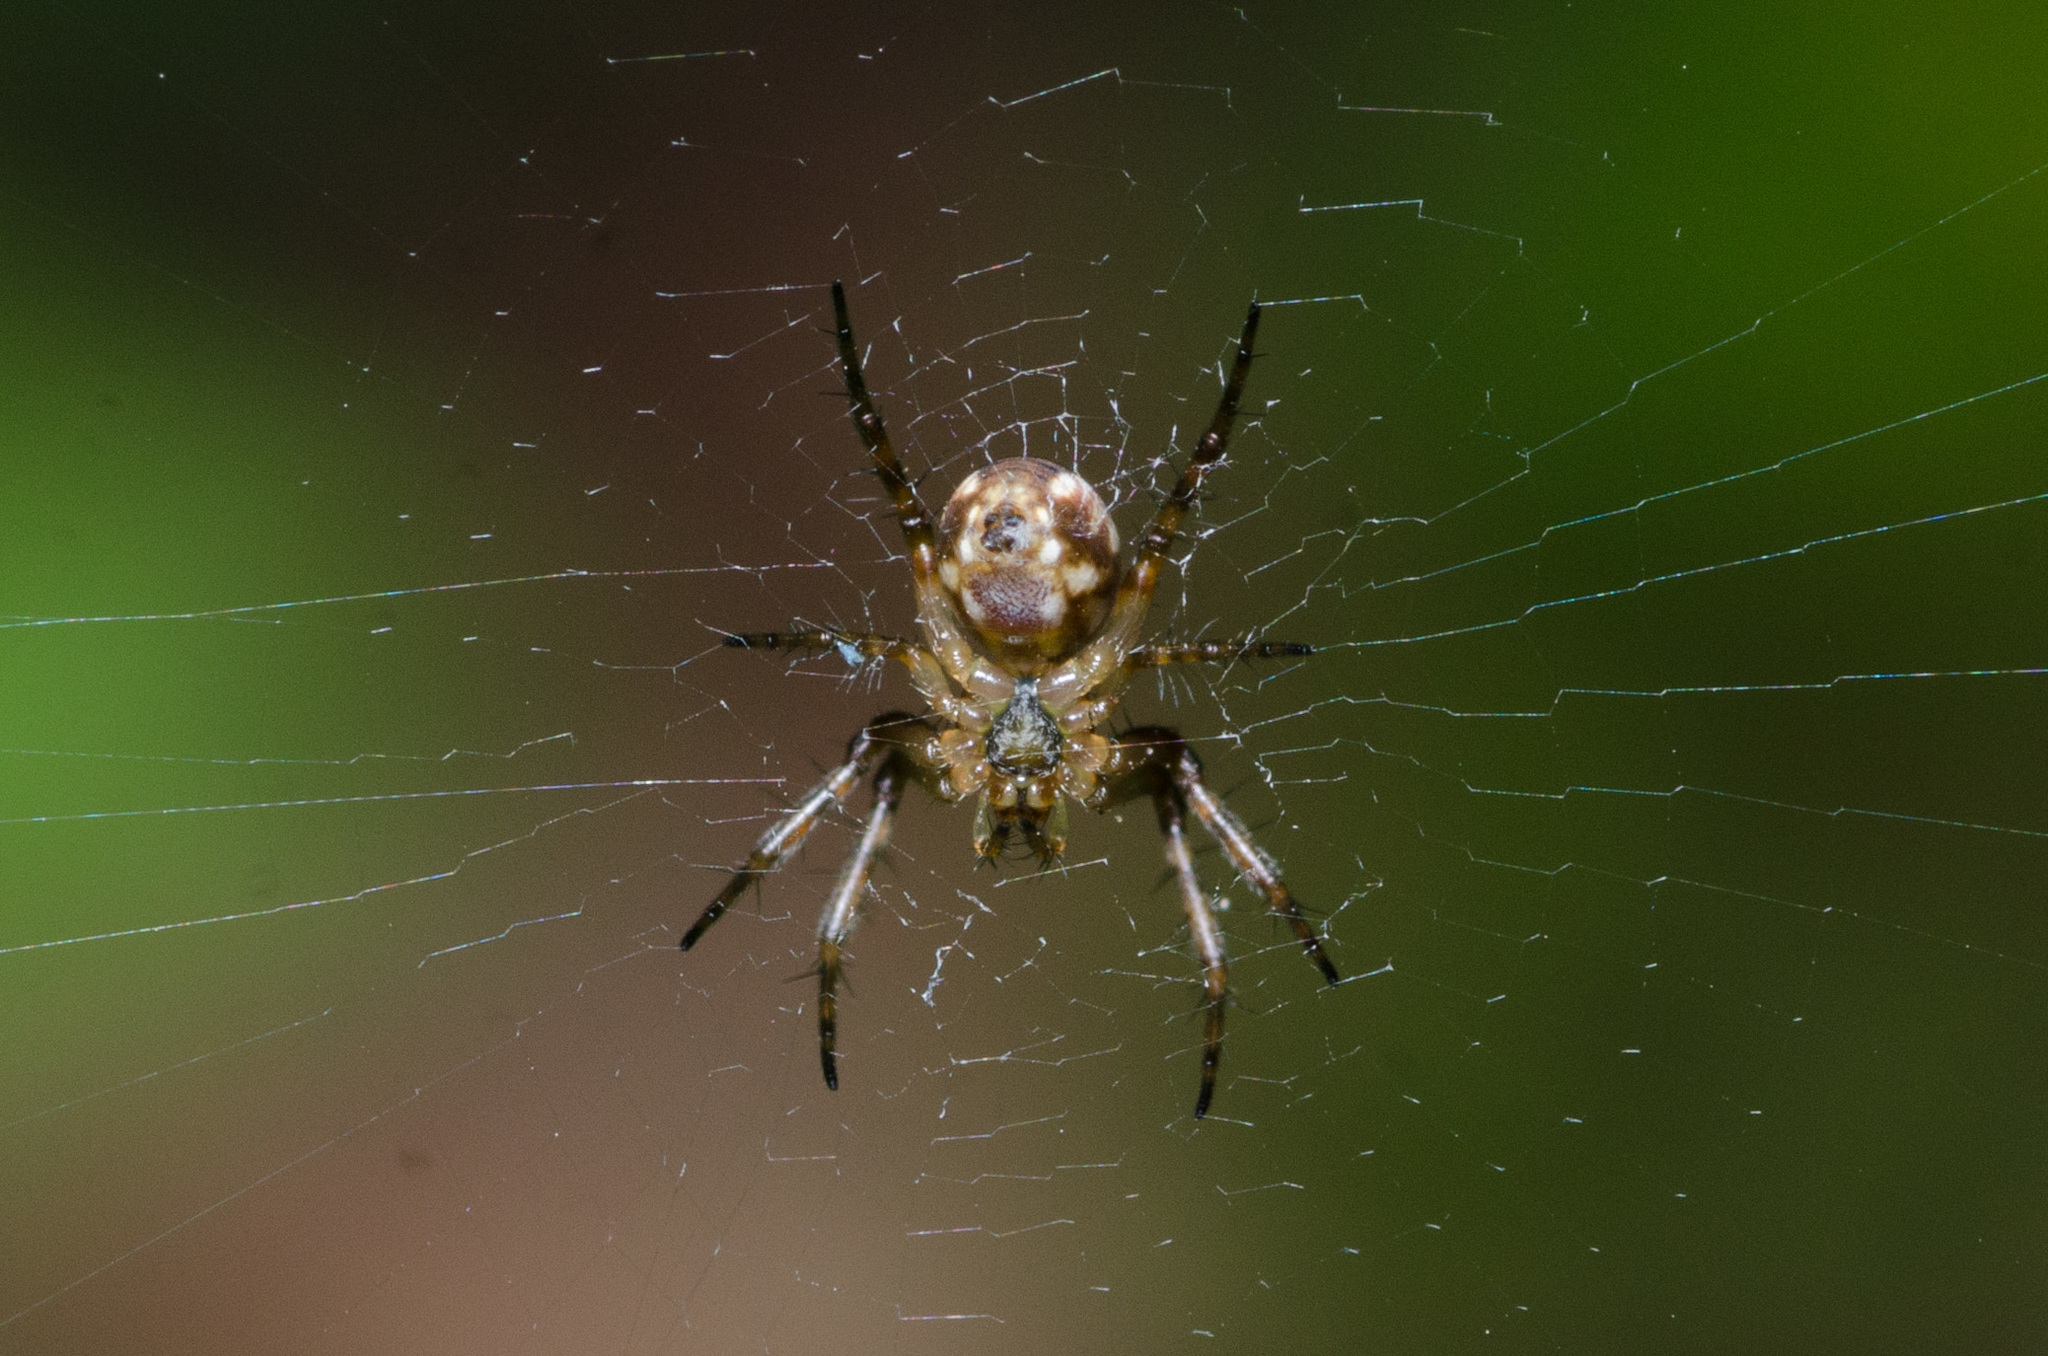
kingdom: Animalia
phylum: Arthropoda
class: Arachnida
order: Araneae
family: Araneidae
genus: Mangora
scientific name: Mangora placida
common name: Tuft-legged orbweaver
